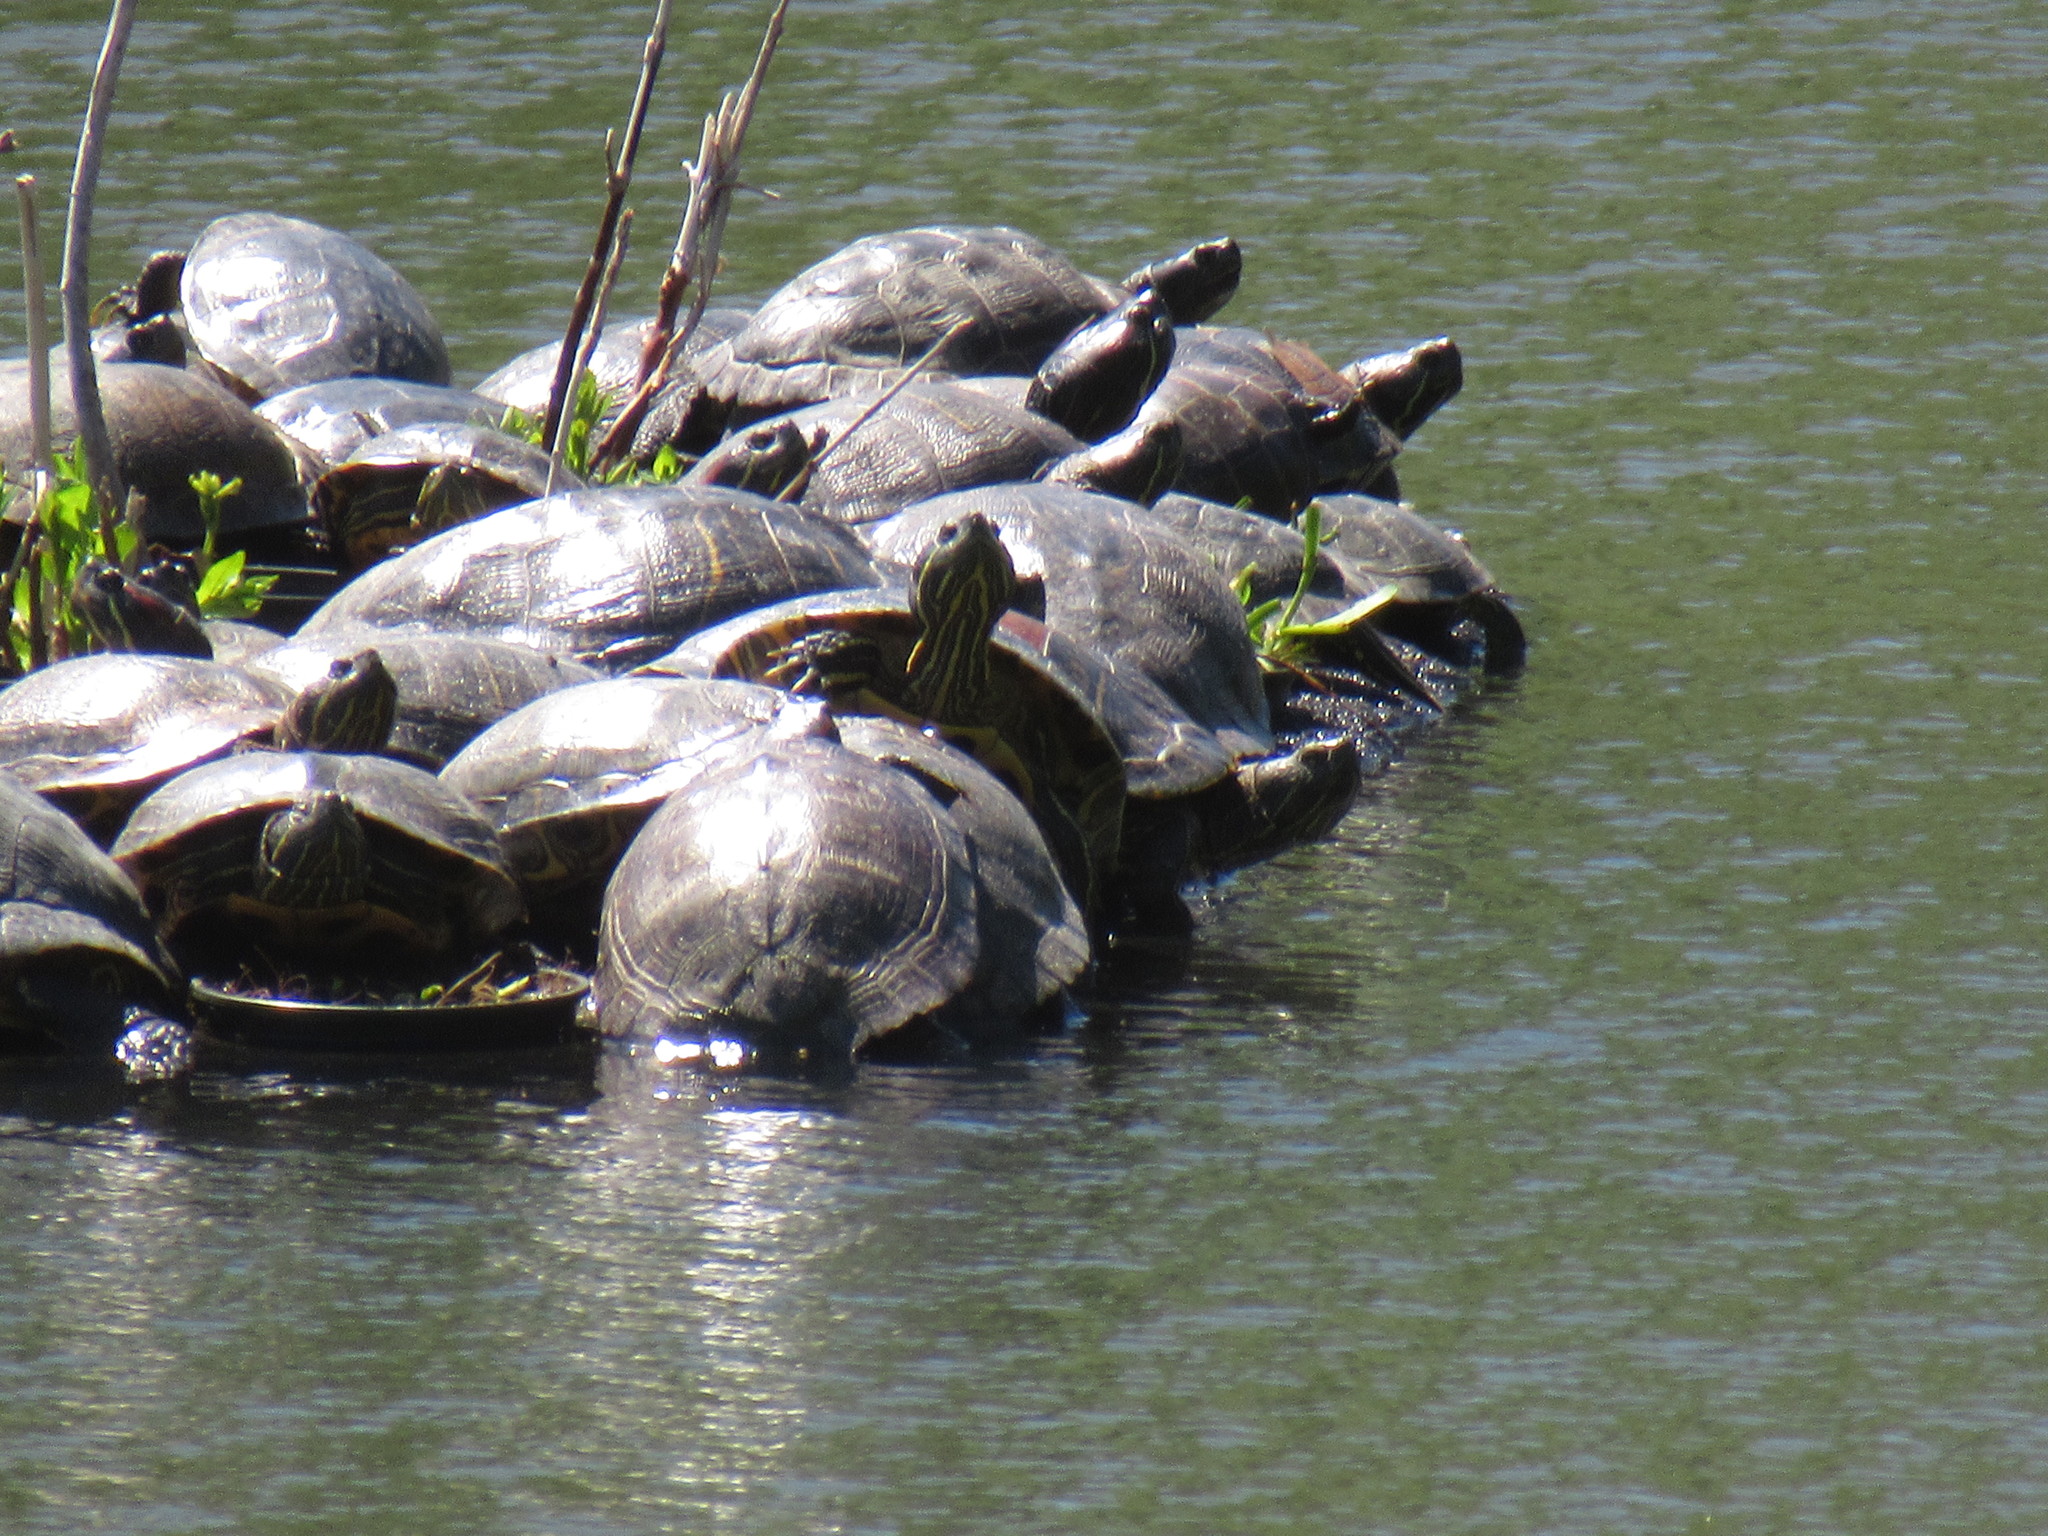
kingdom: Animalia
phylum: Chordata
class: Testudines
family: Emydidae
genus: Trachemys
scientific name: Trachemys scripta
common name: Slider
